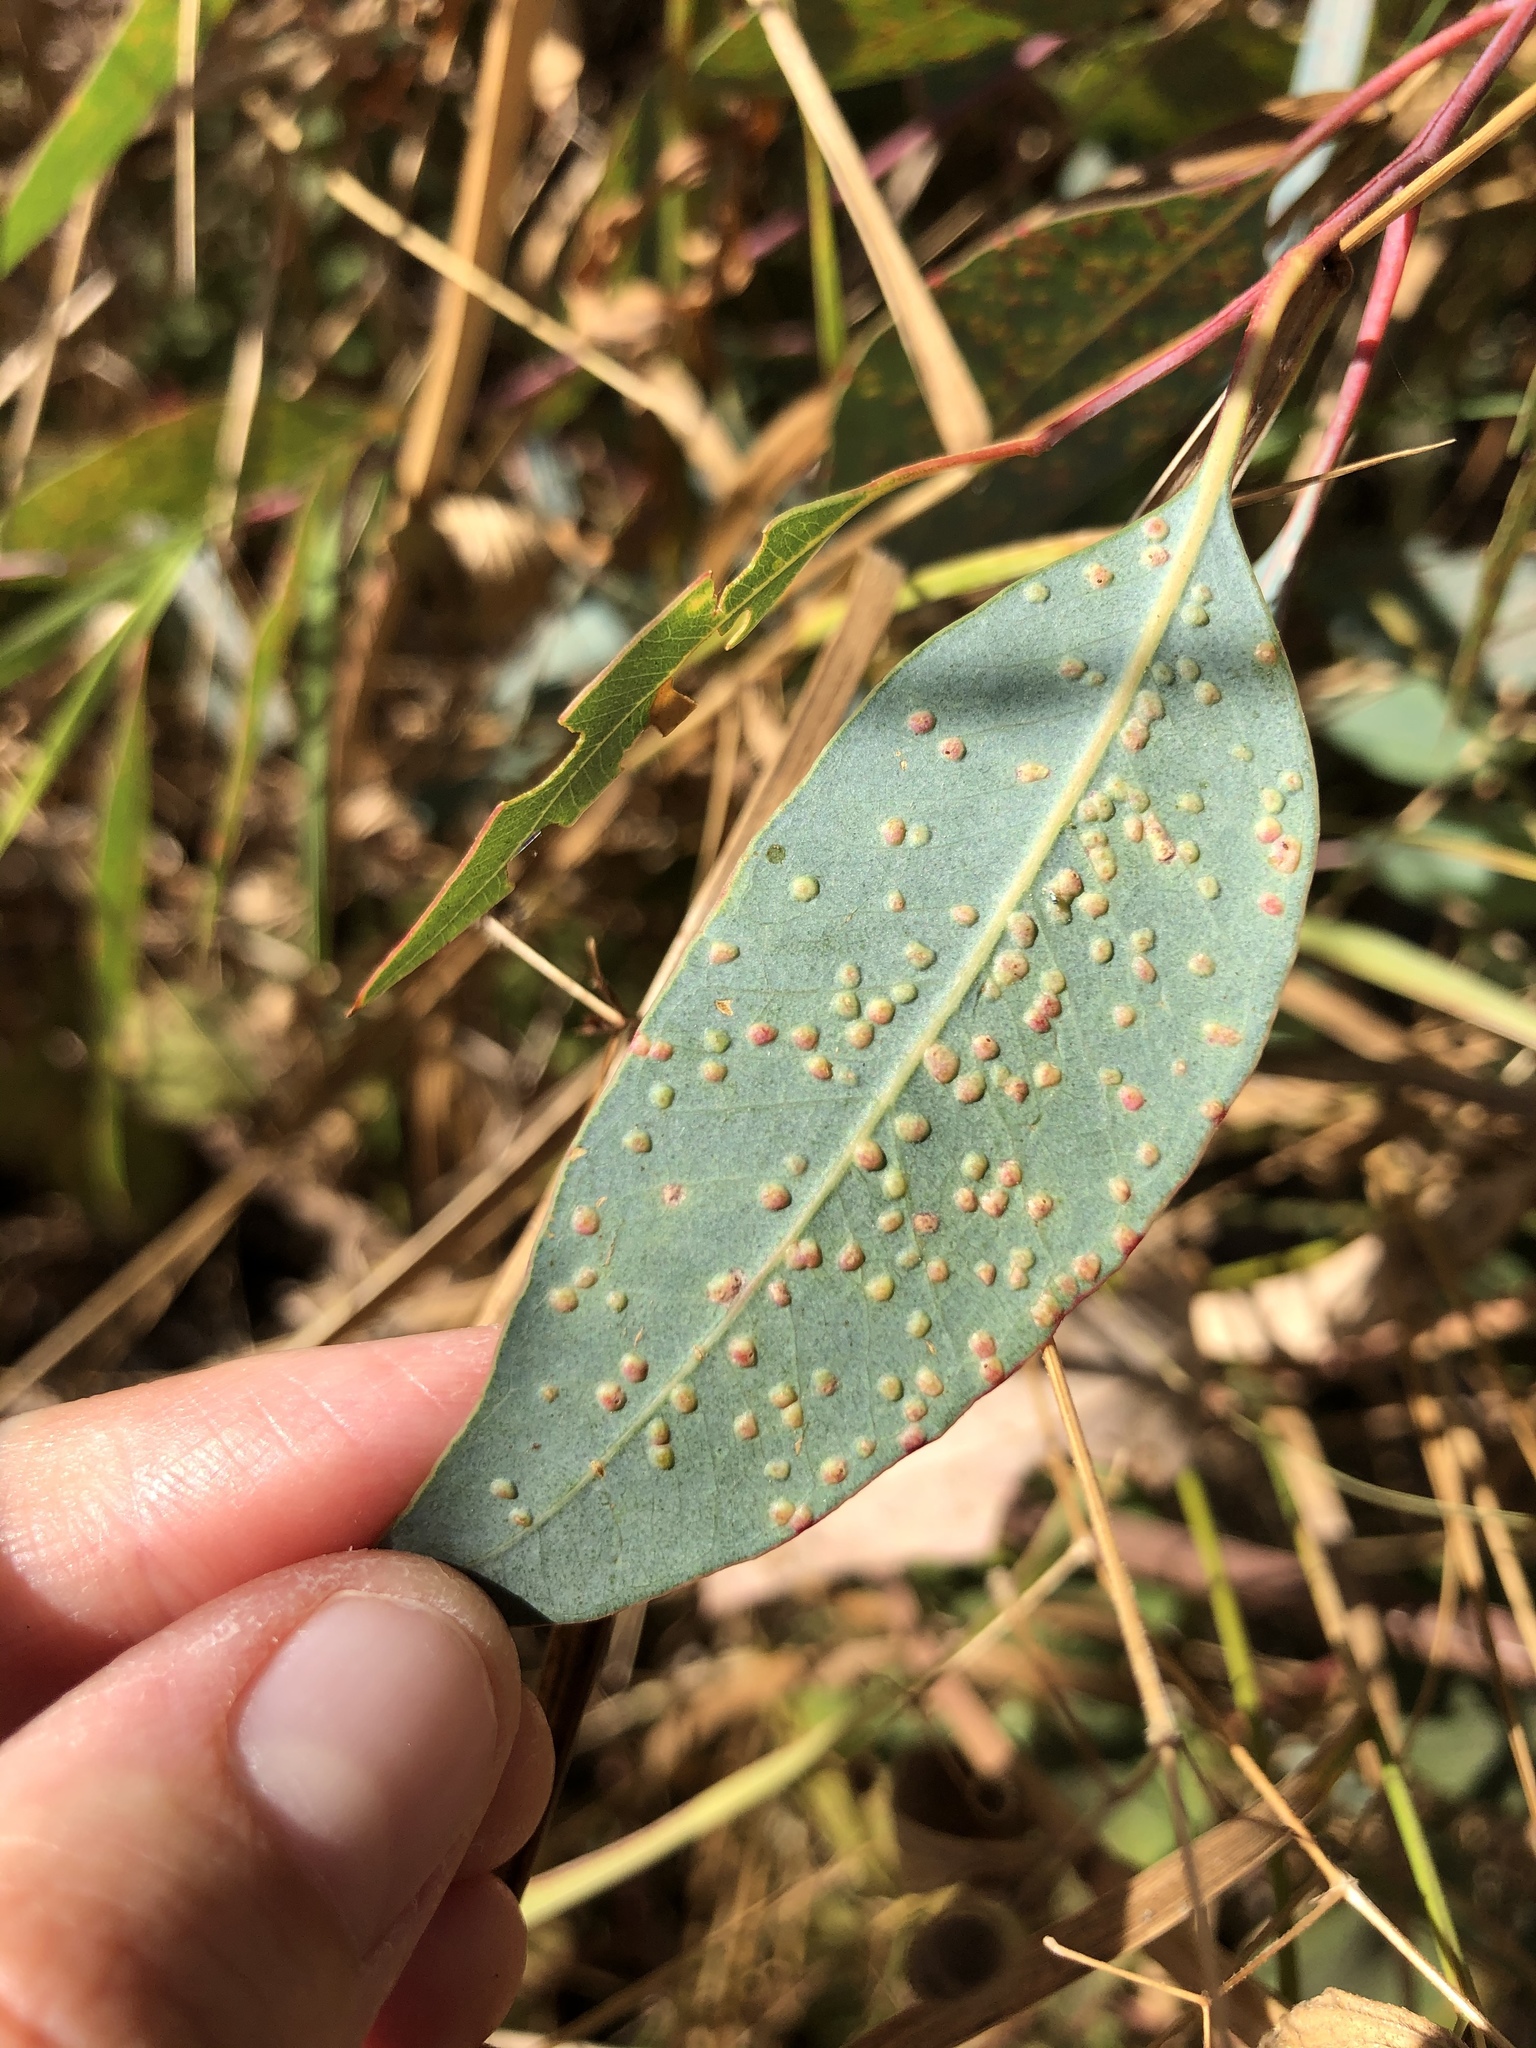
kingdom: Animalia
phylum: Arthropoda
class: Insecta
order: Hymenoptera
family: Eulophidae
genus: Ophelimus
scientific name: Ophelimus maskelli
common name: Gall wasp
